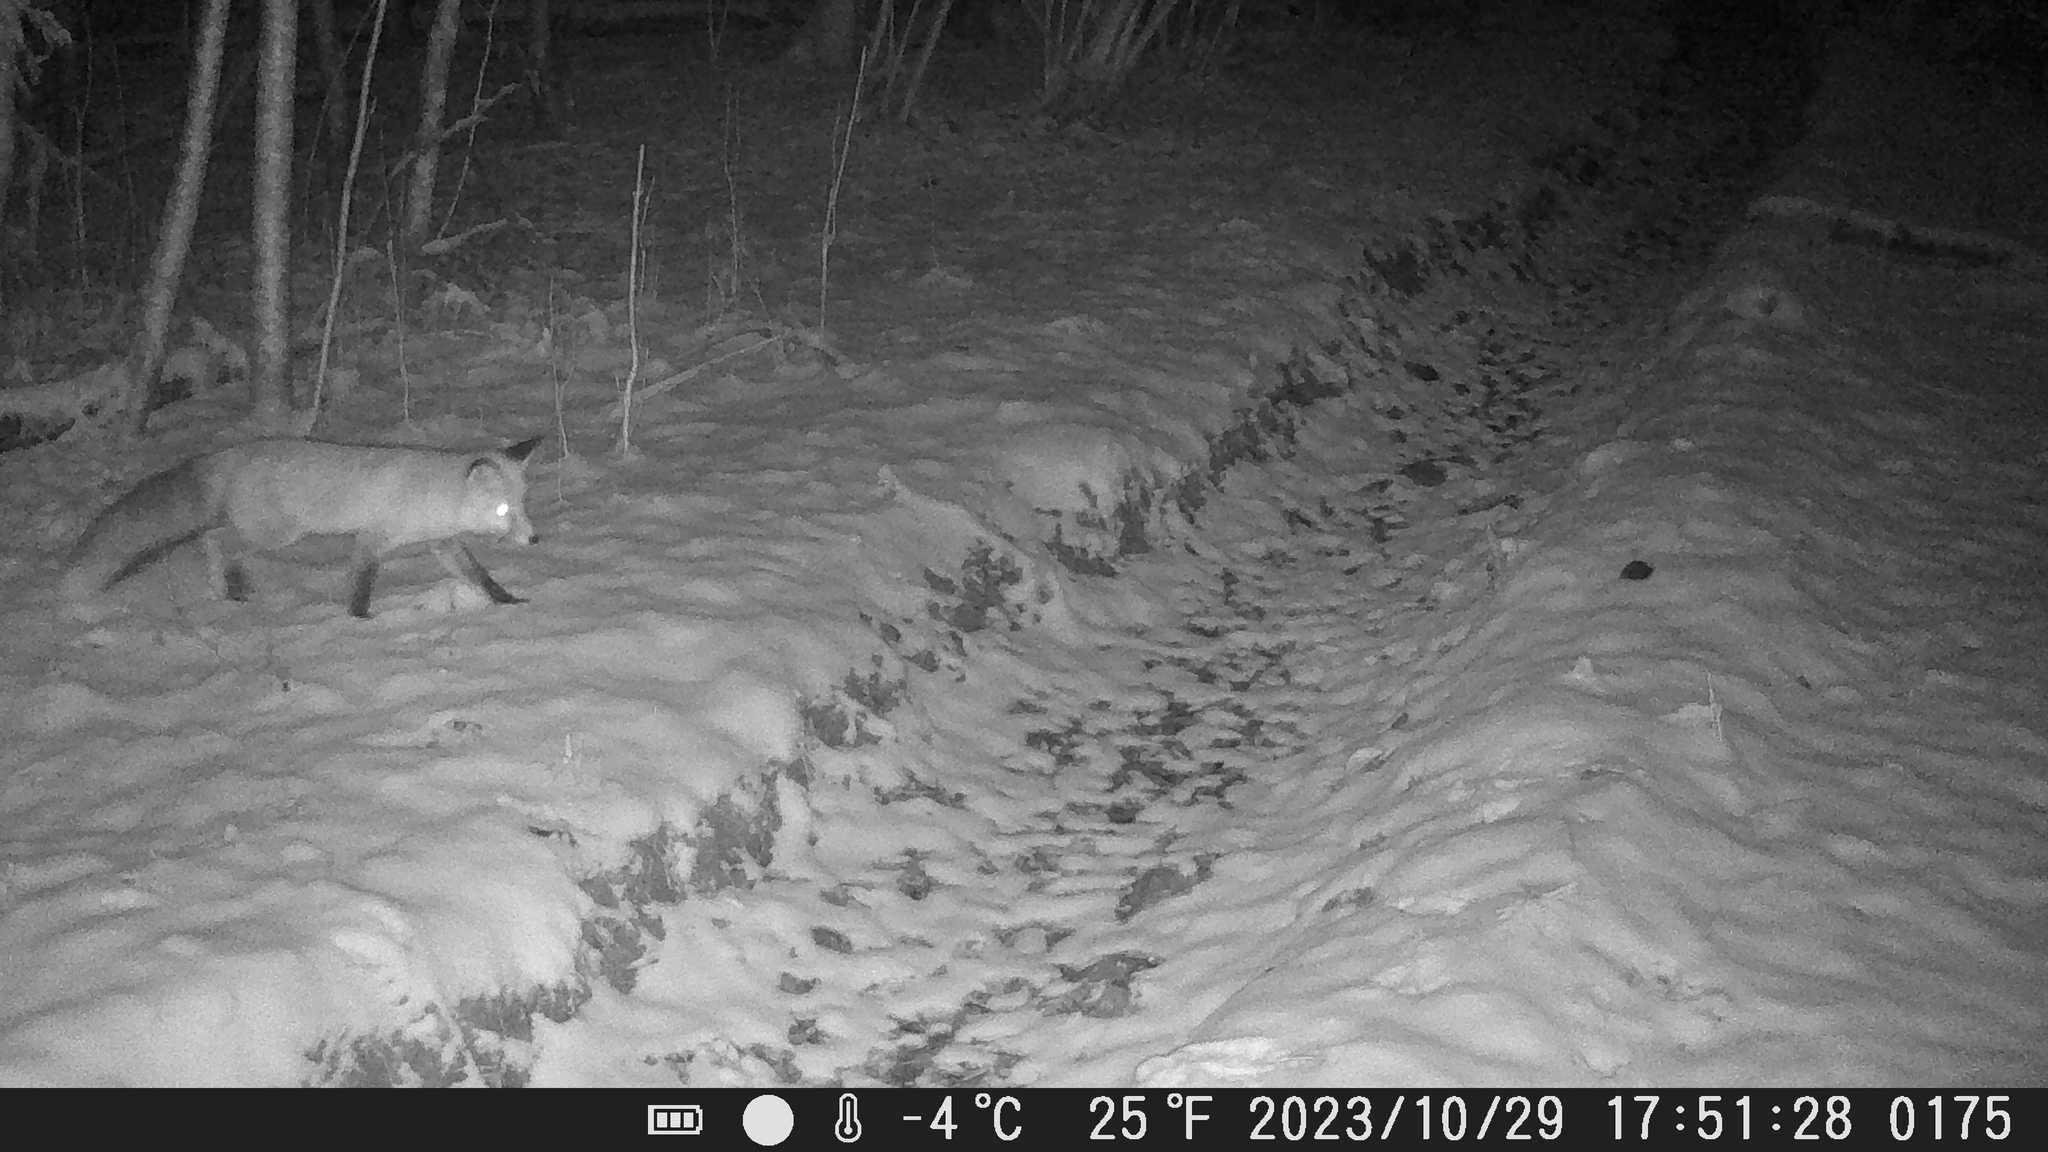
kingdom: Animalia
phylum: Chordata
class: Mammalia
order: Carnivora
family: Canidae
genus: Vulpes
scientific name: Vulpes vulpes
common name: Red fox
